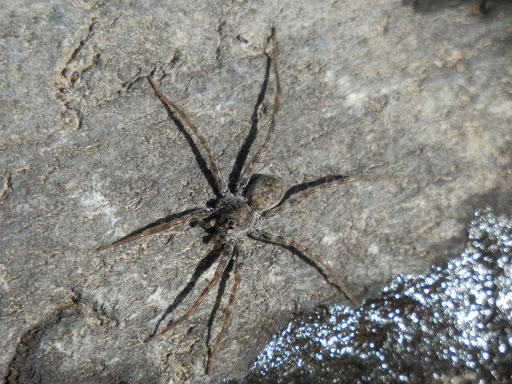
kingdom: Animalia
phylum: Arthropoda
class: Arachnida
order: Araneae
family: Lycosidae
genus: Pardosa
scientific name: Pardosa
